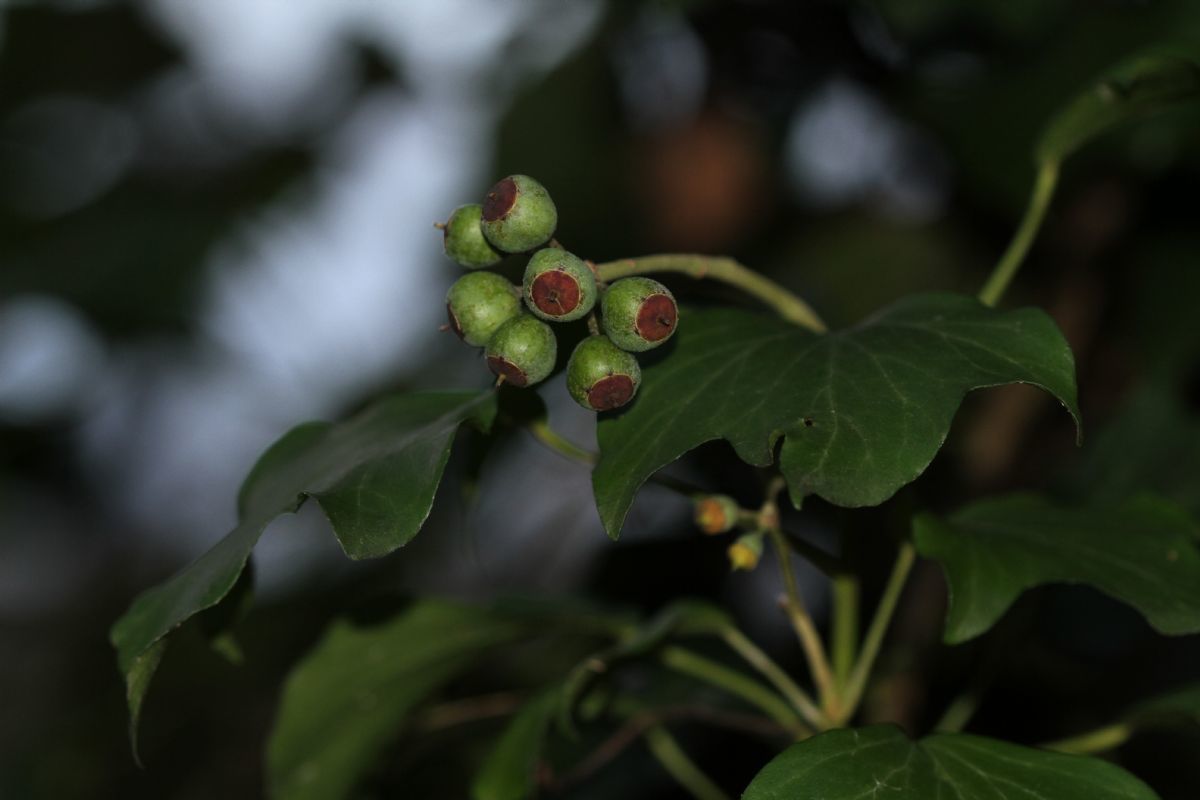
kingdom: Plantae
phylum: Tracheophyta
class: Magnoliopsida
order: Apiales
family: Araliaceae
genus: Hedera
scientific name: Hedera helix
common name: Ivy
